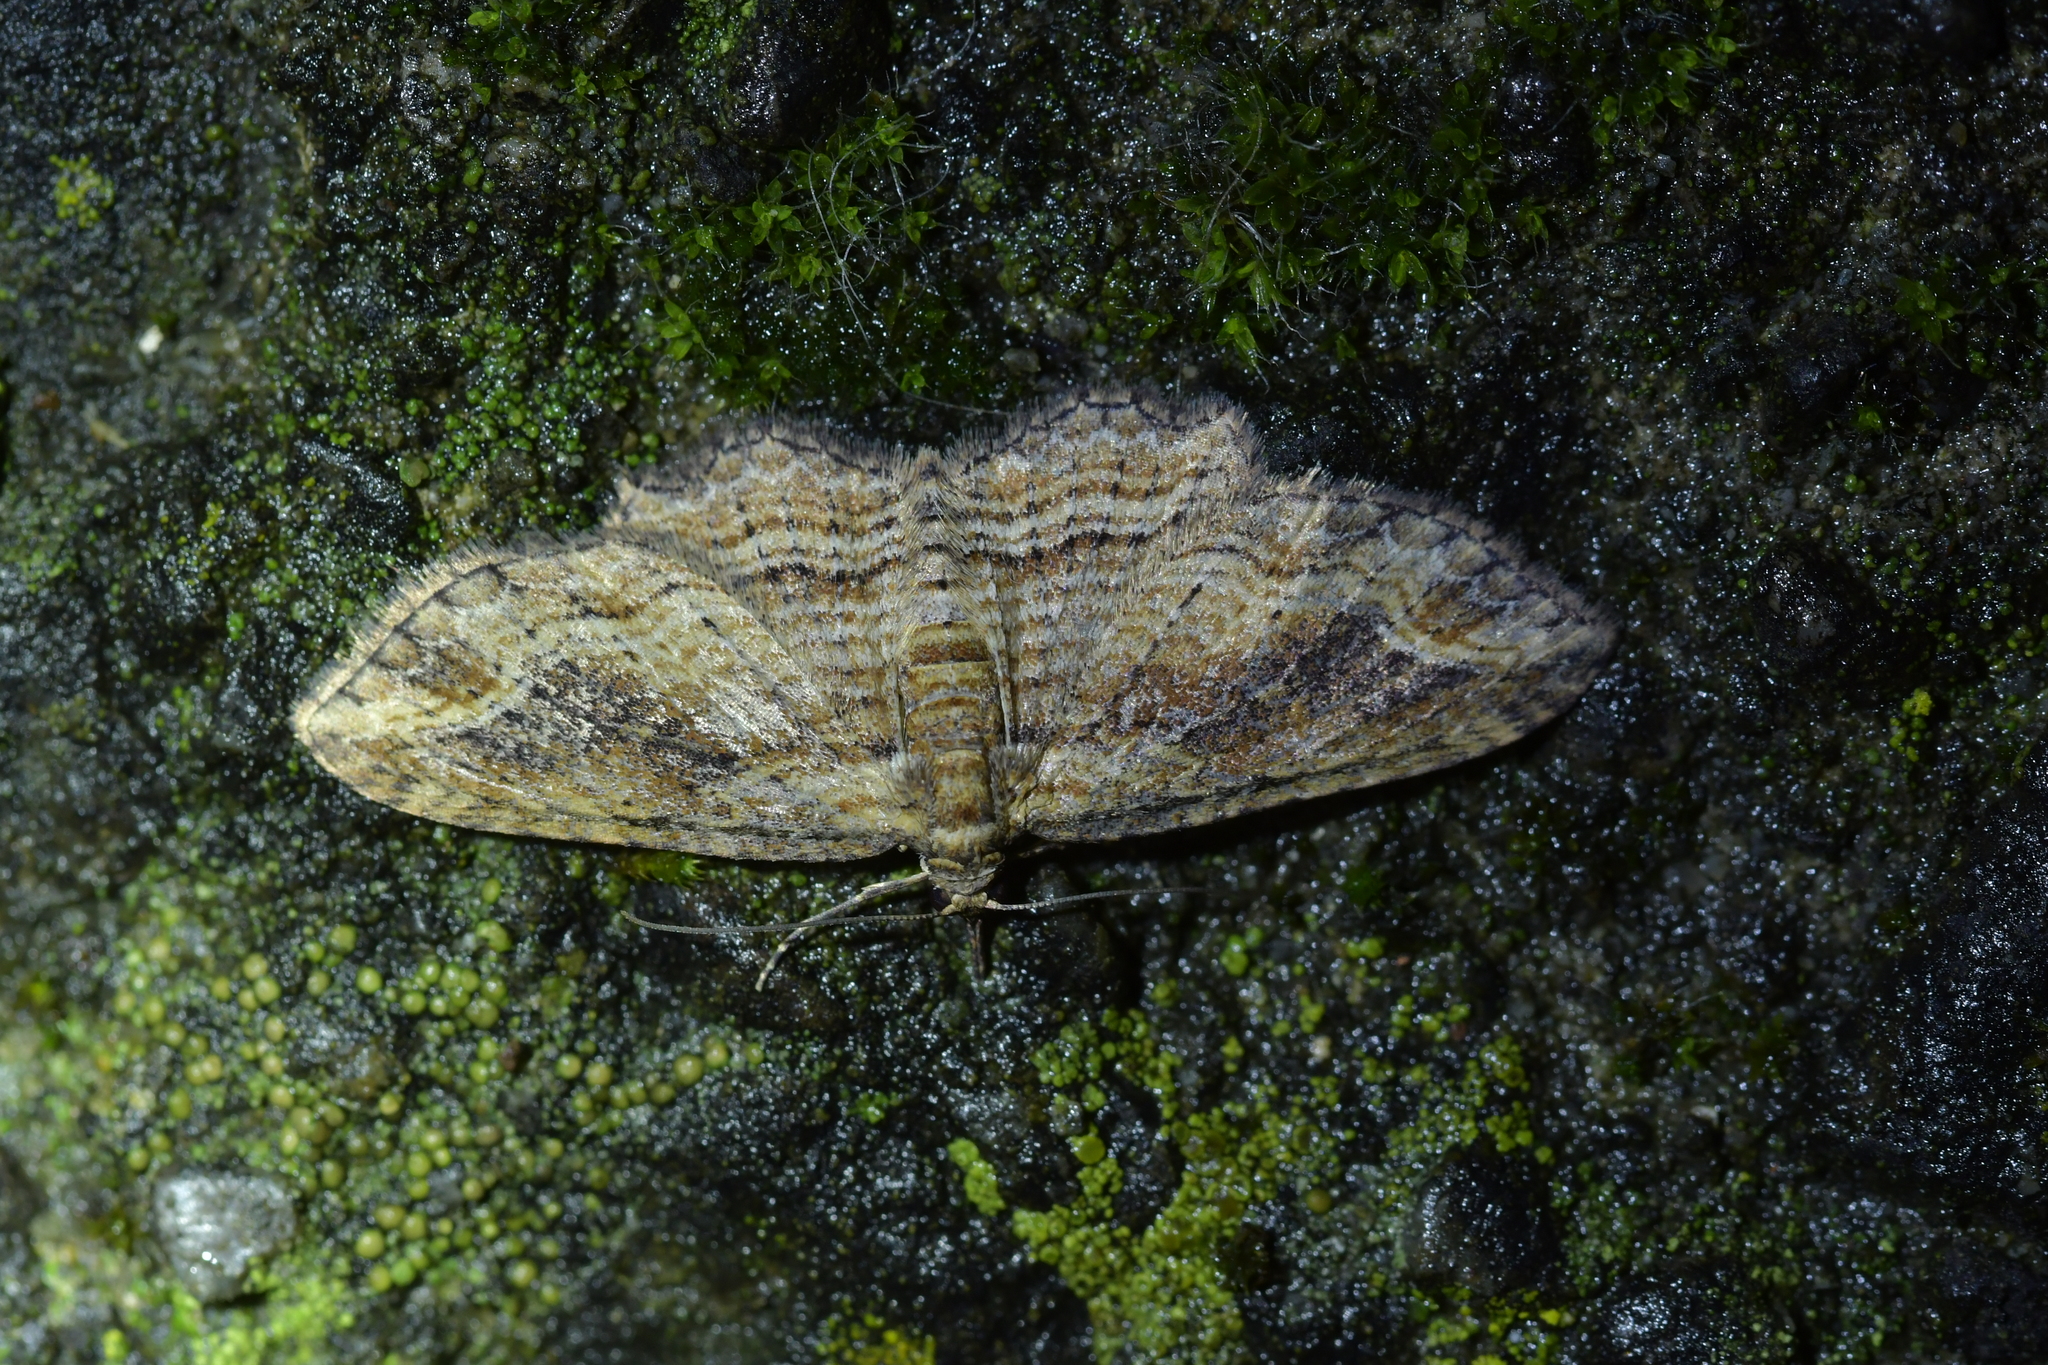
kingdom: Animalia
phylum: Arthropoda
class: Insecta
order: Lepidoptera
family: Geometridae
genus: Chloroclystis
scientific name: Chloroclystis filata
